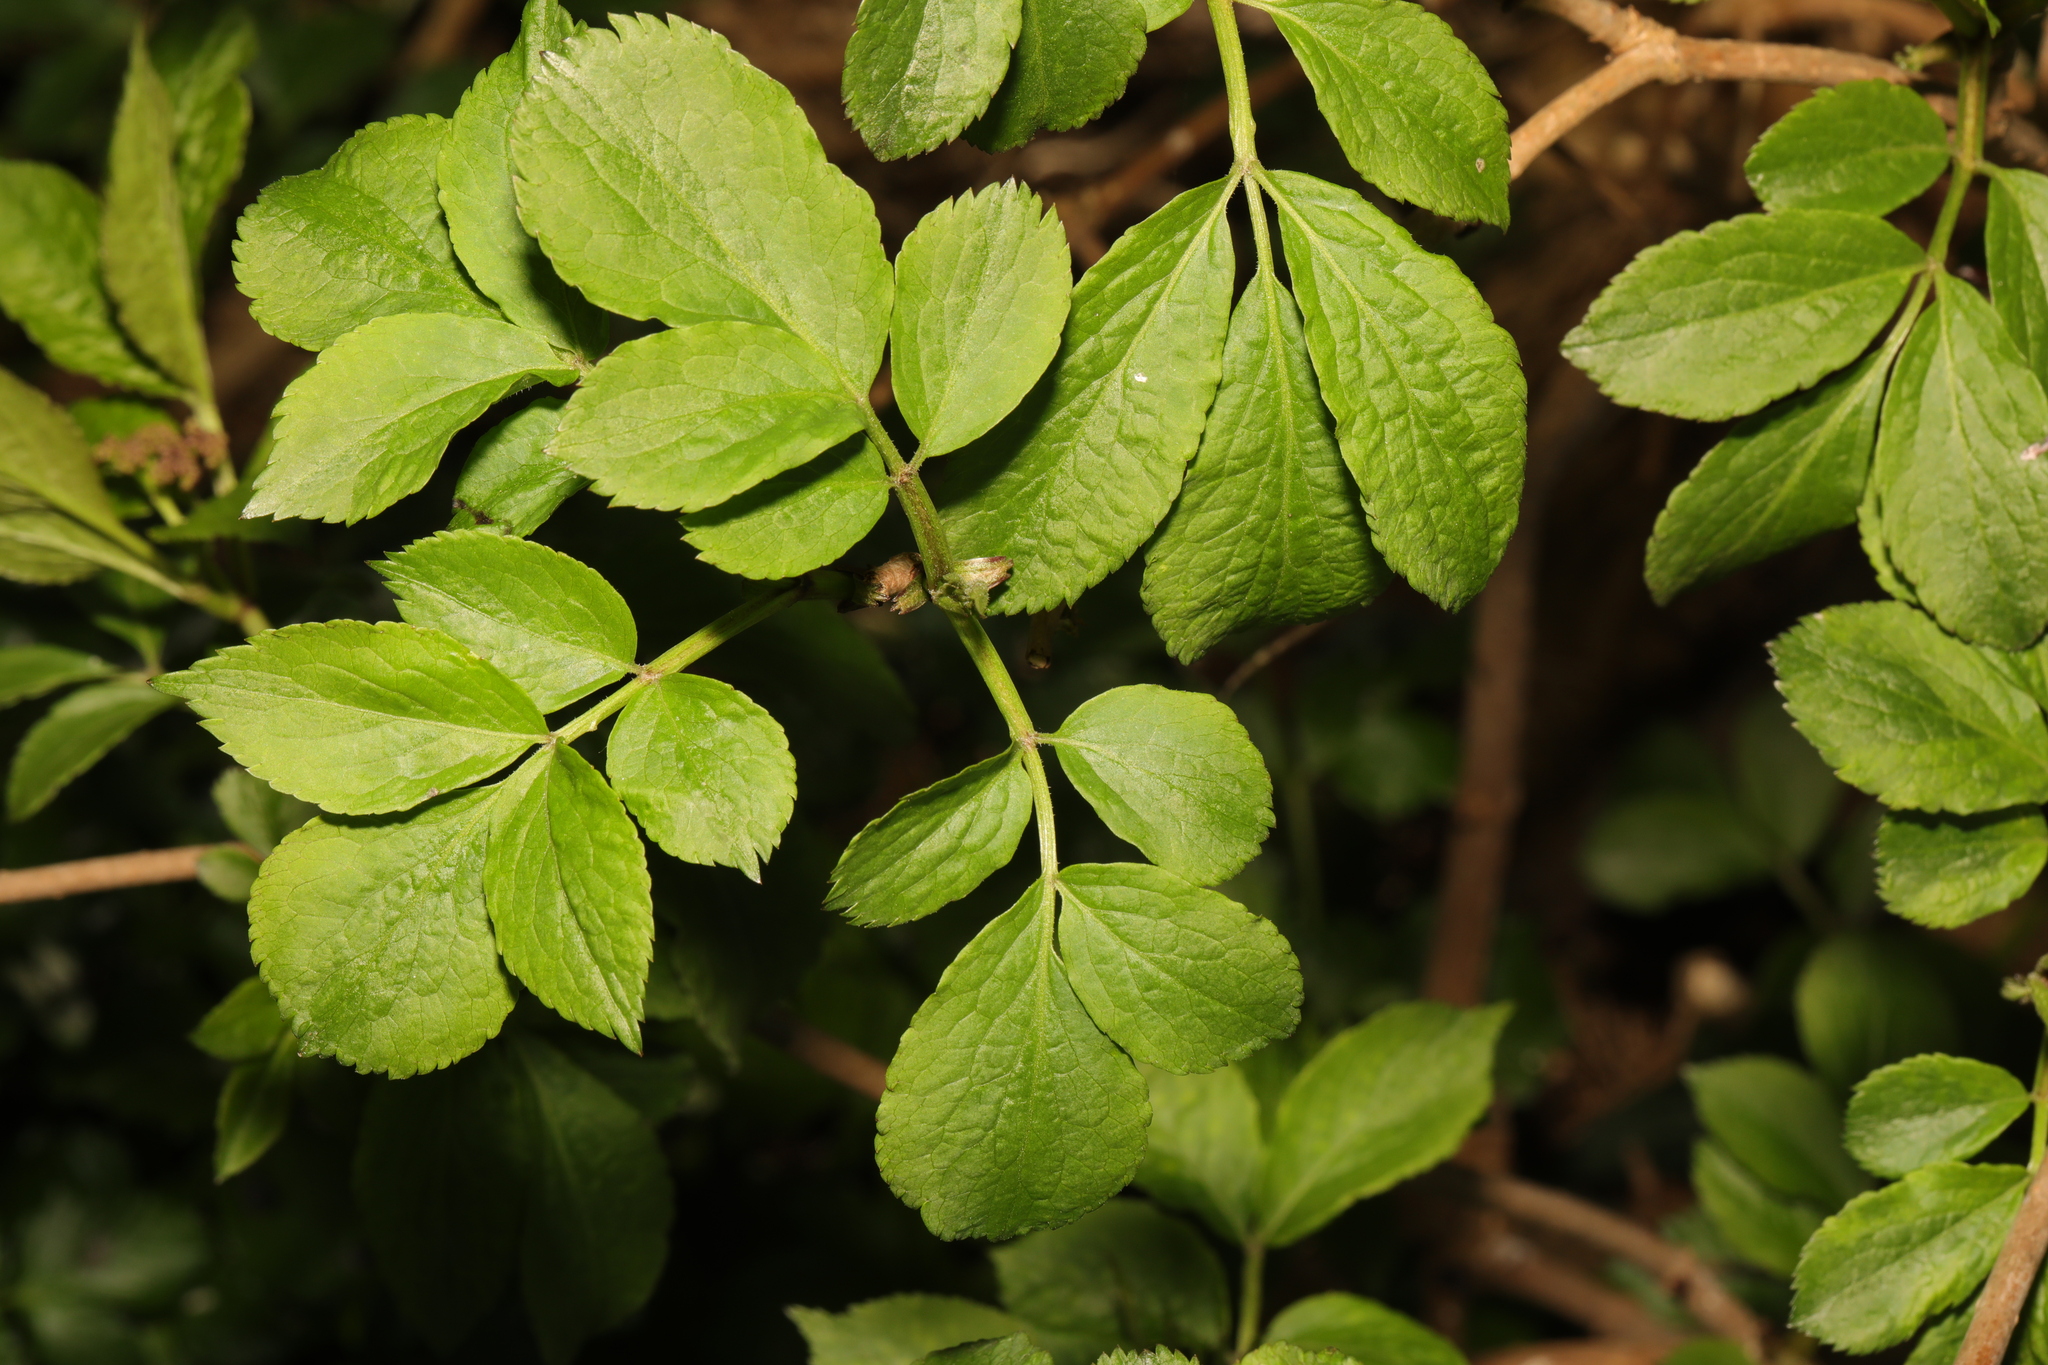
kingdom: Plantae
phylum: Tracheophyta
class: Magnoliopsida
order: Dipsacales
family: Viburnaceae
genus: Sambucus
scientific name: Sambucus nigra
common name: Elder
